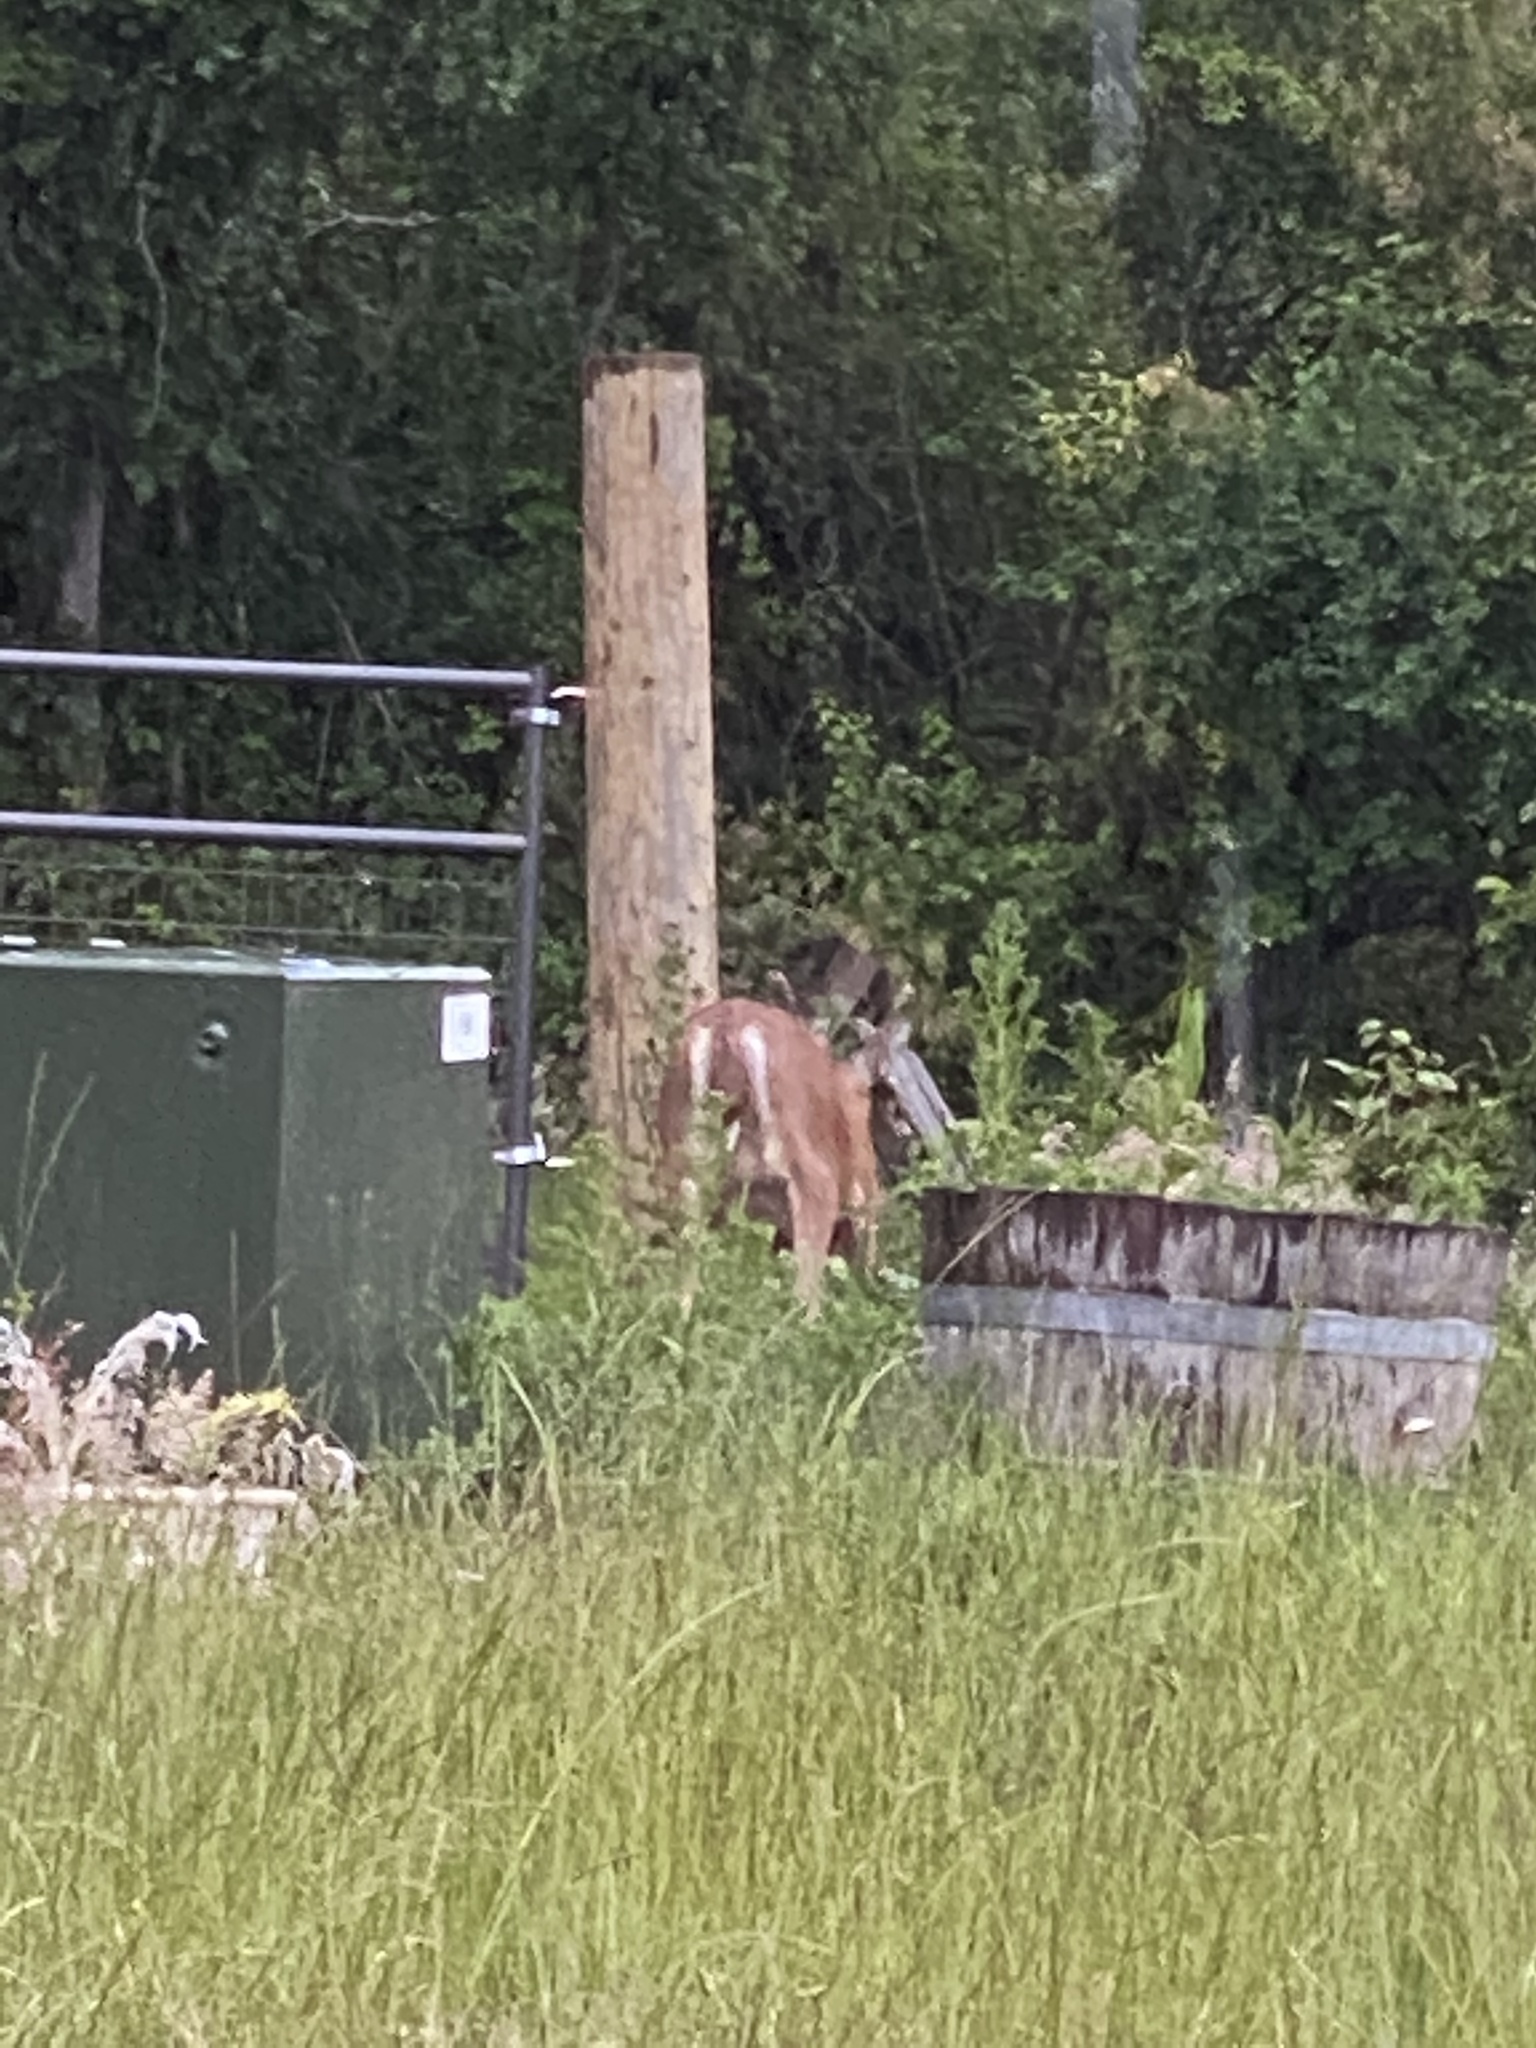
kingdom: Animalia
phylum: Chordata
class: Mammalia
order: Artiodactyla
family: Cervidae
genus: Odocoileus
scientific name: Odocoileus hemionus
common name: Mule deer
